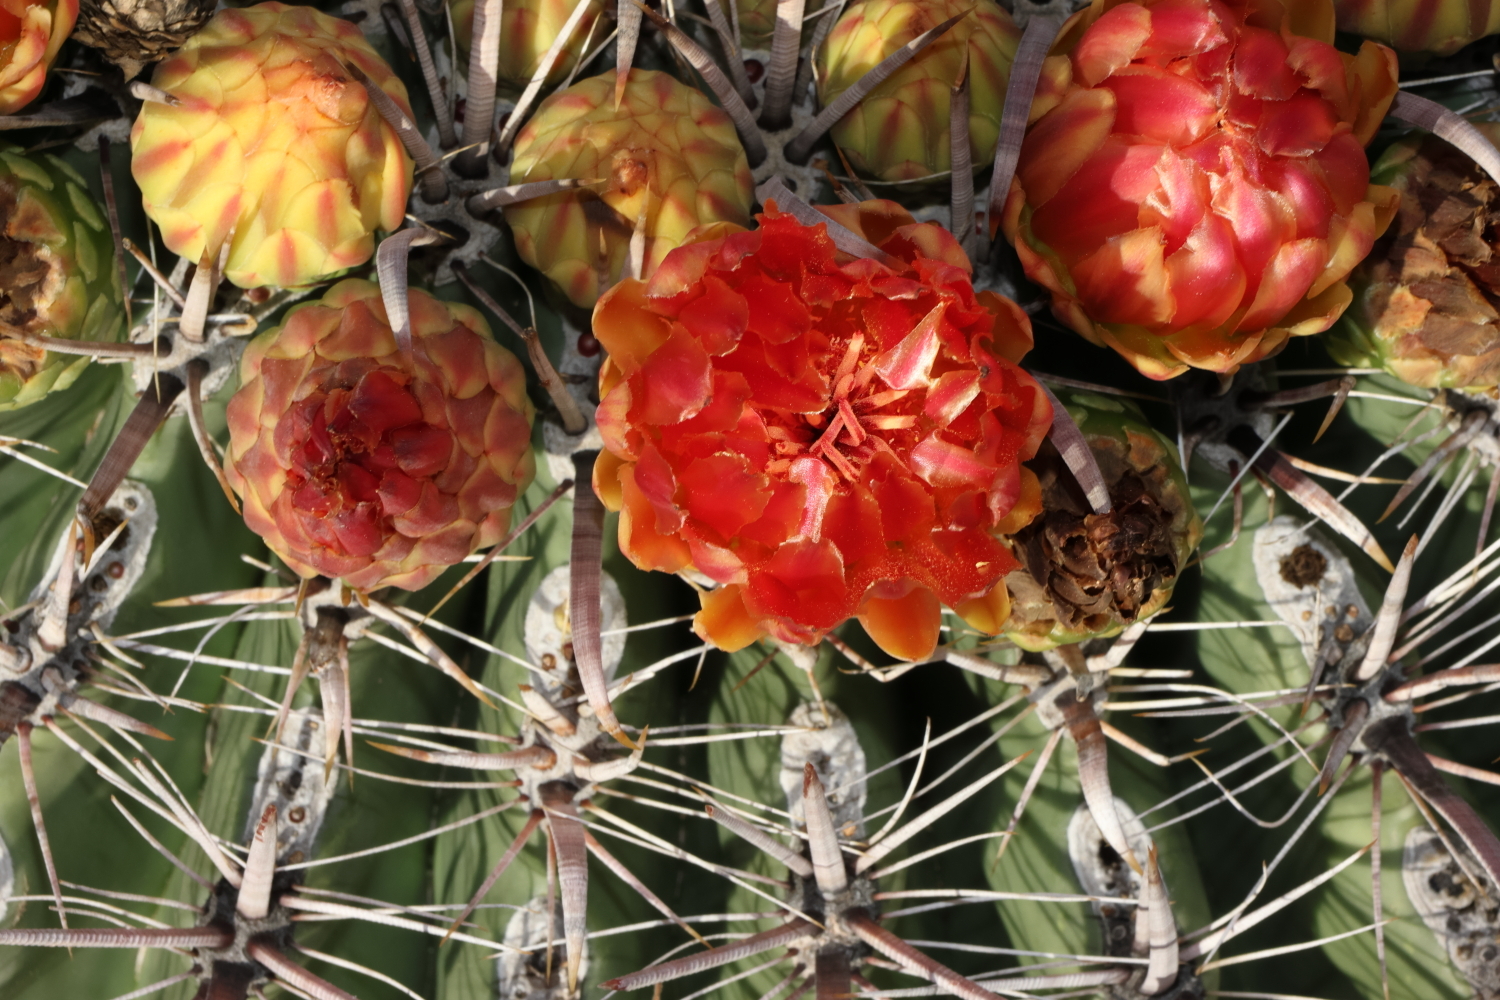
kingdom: Plantae
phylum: Tracheophyta
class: Magnoliopsida
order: Caryophyllales
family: Cactaceae
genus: Ferocactus
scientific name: Ferocactus wislizeni
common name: Candy barrel cactus
